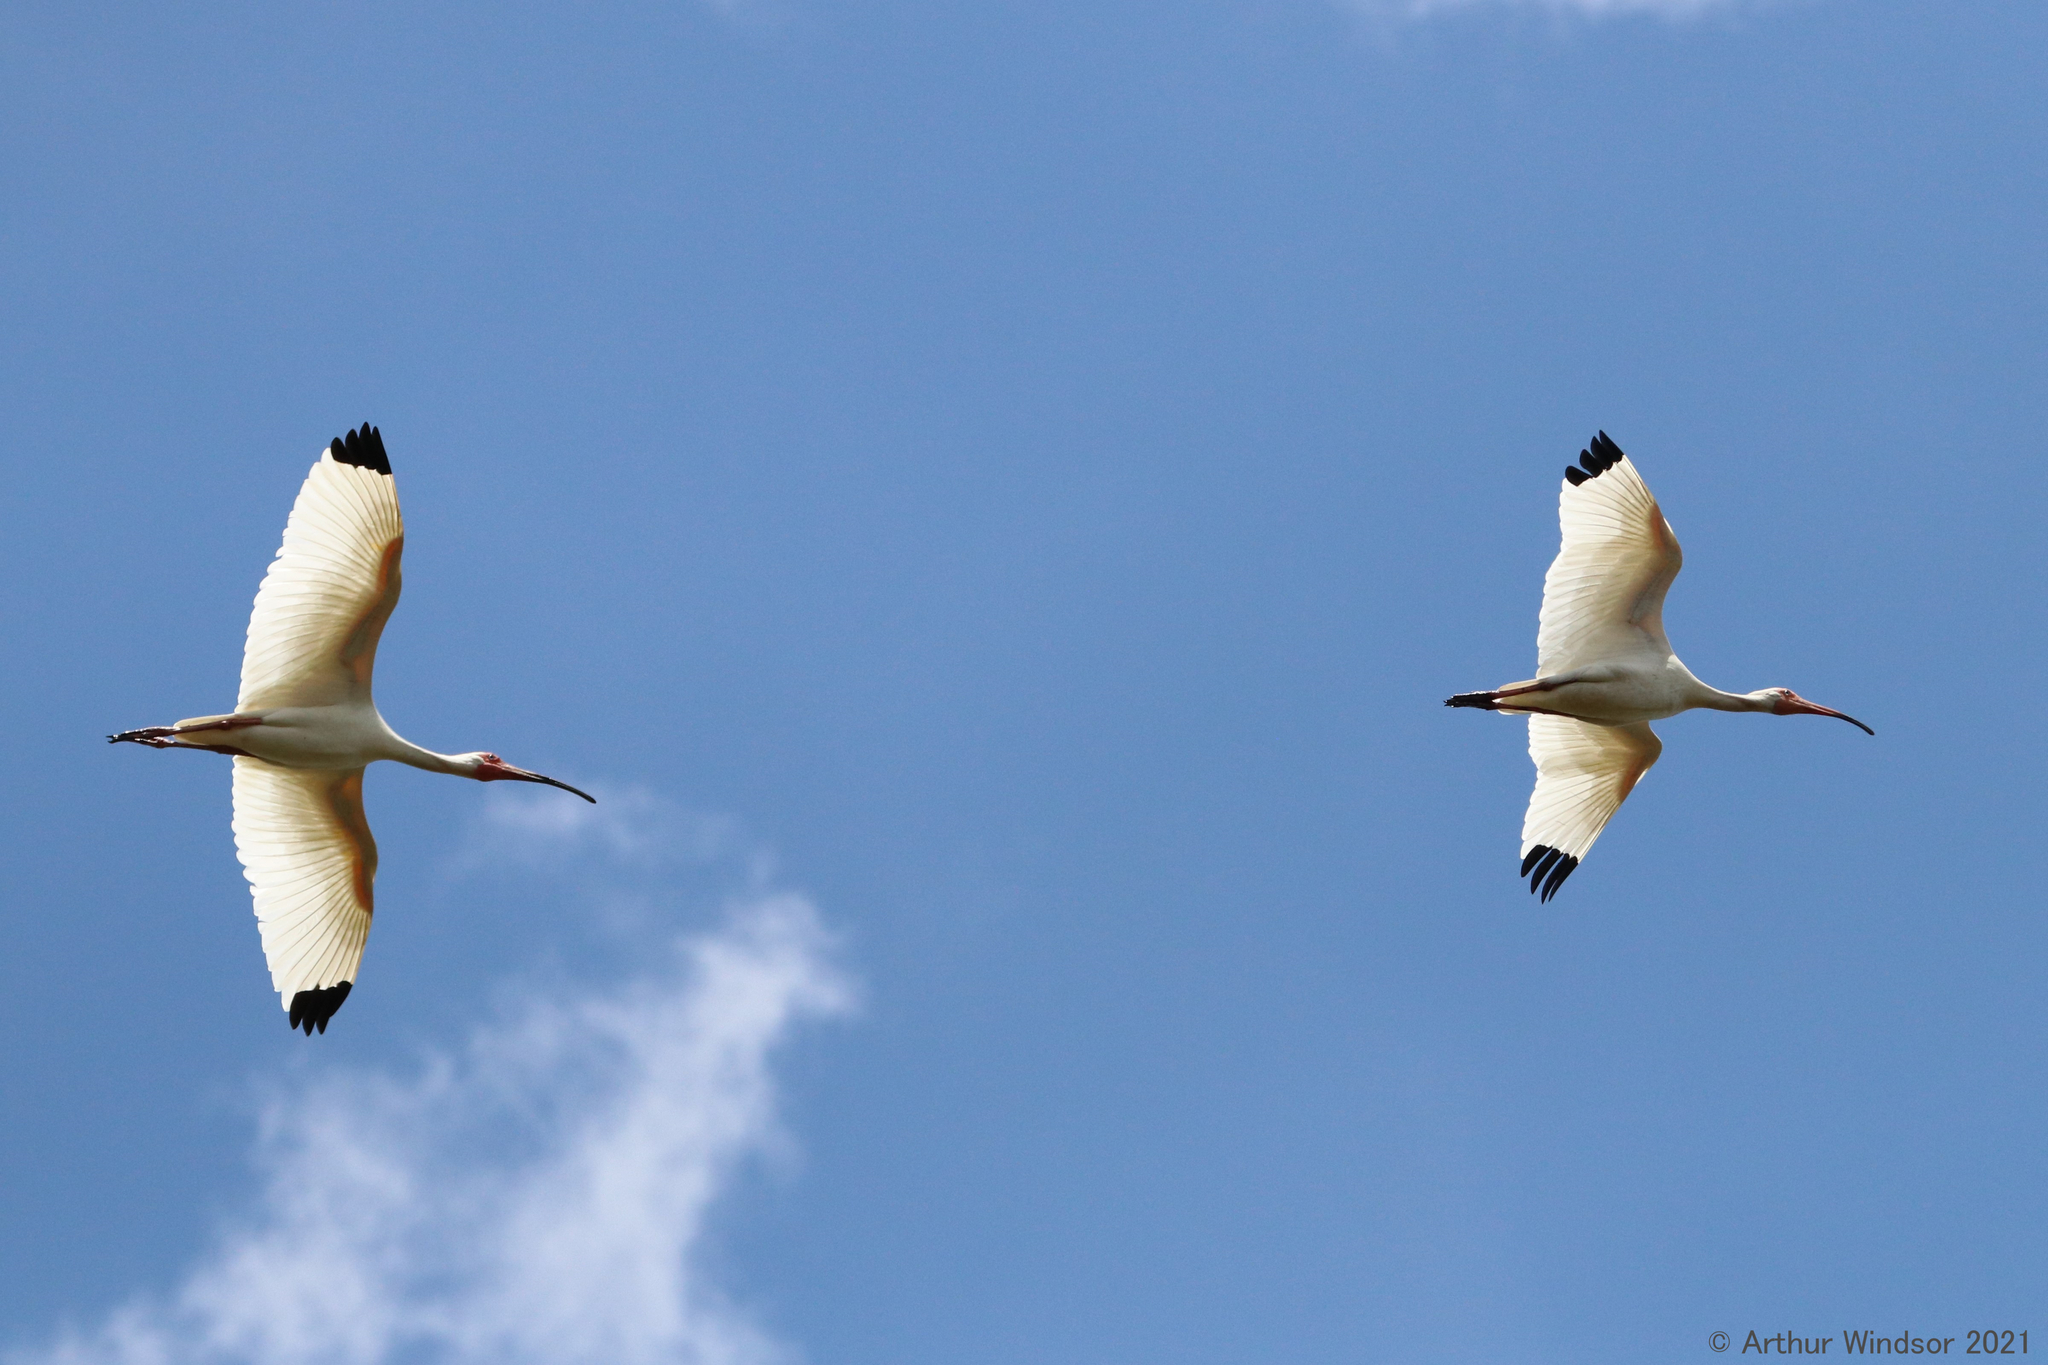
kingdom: Animalia
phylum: Chordata
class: Aves
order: Pelecaniformes
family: Threskiornithidae
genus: Eudocimus
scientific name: Eudocimus albus
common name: White ibis
